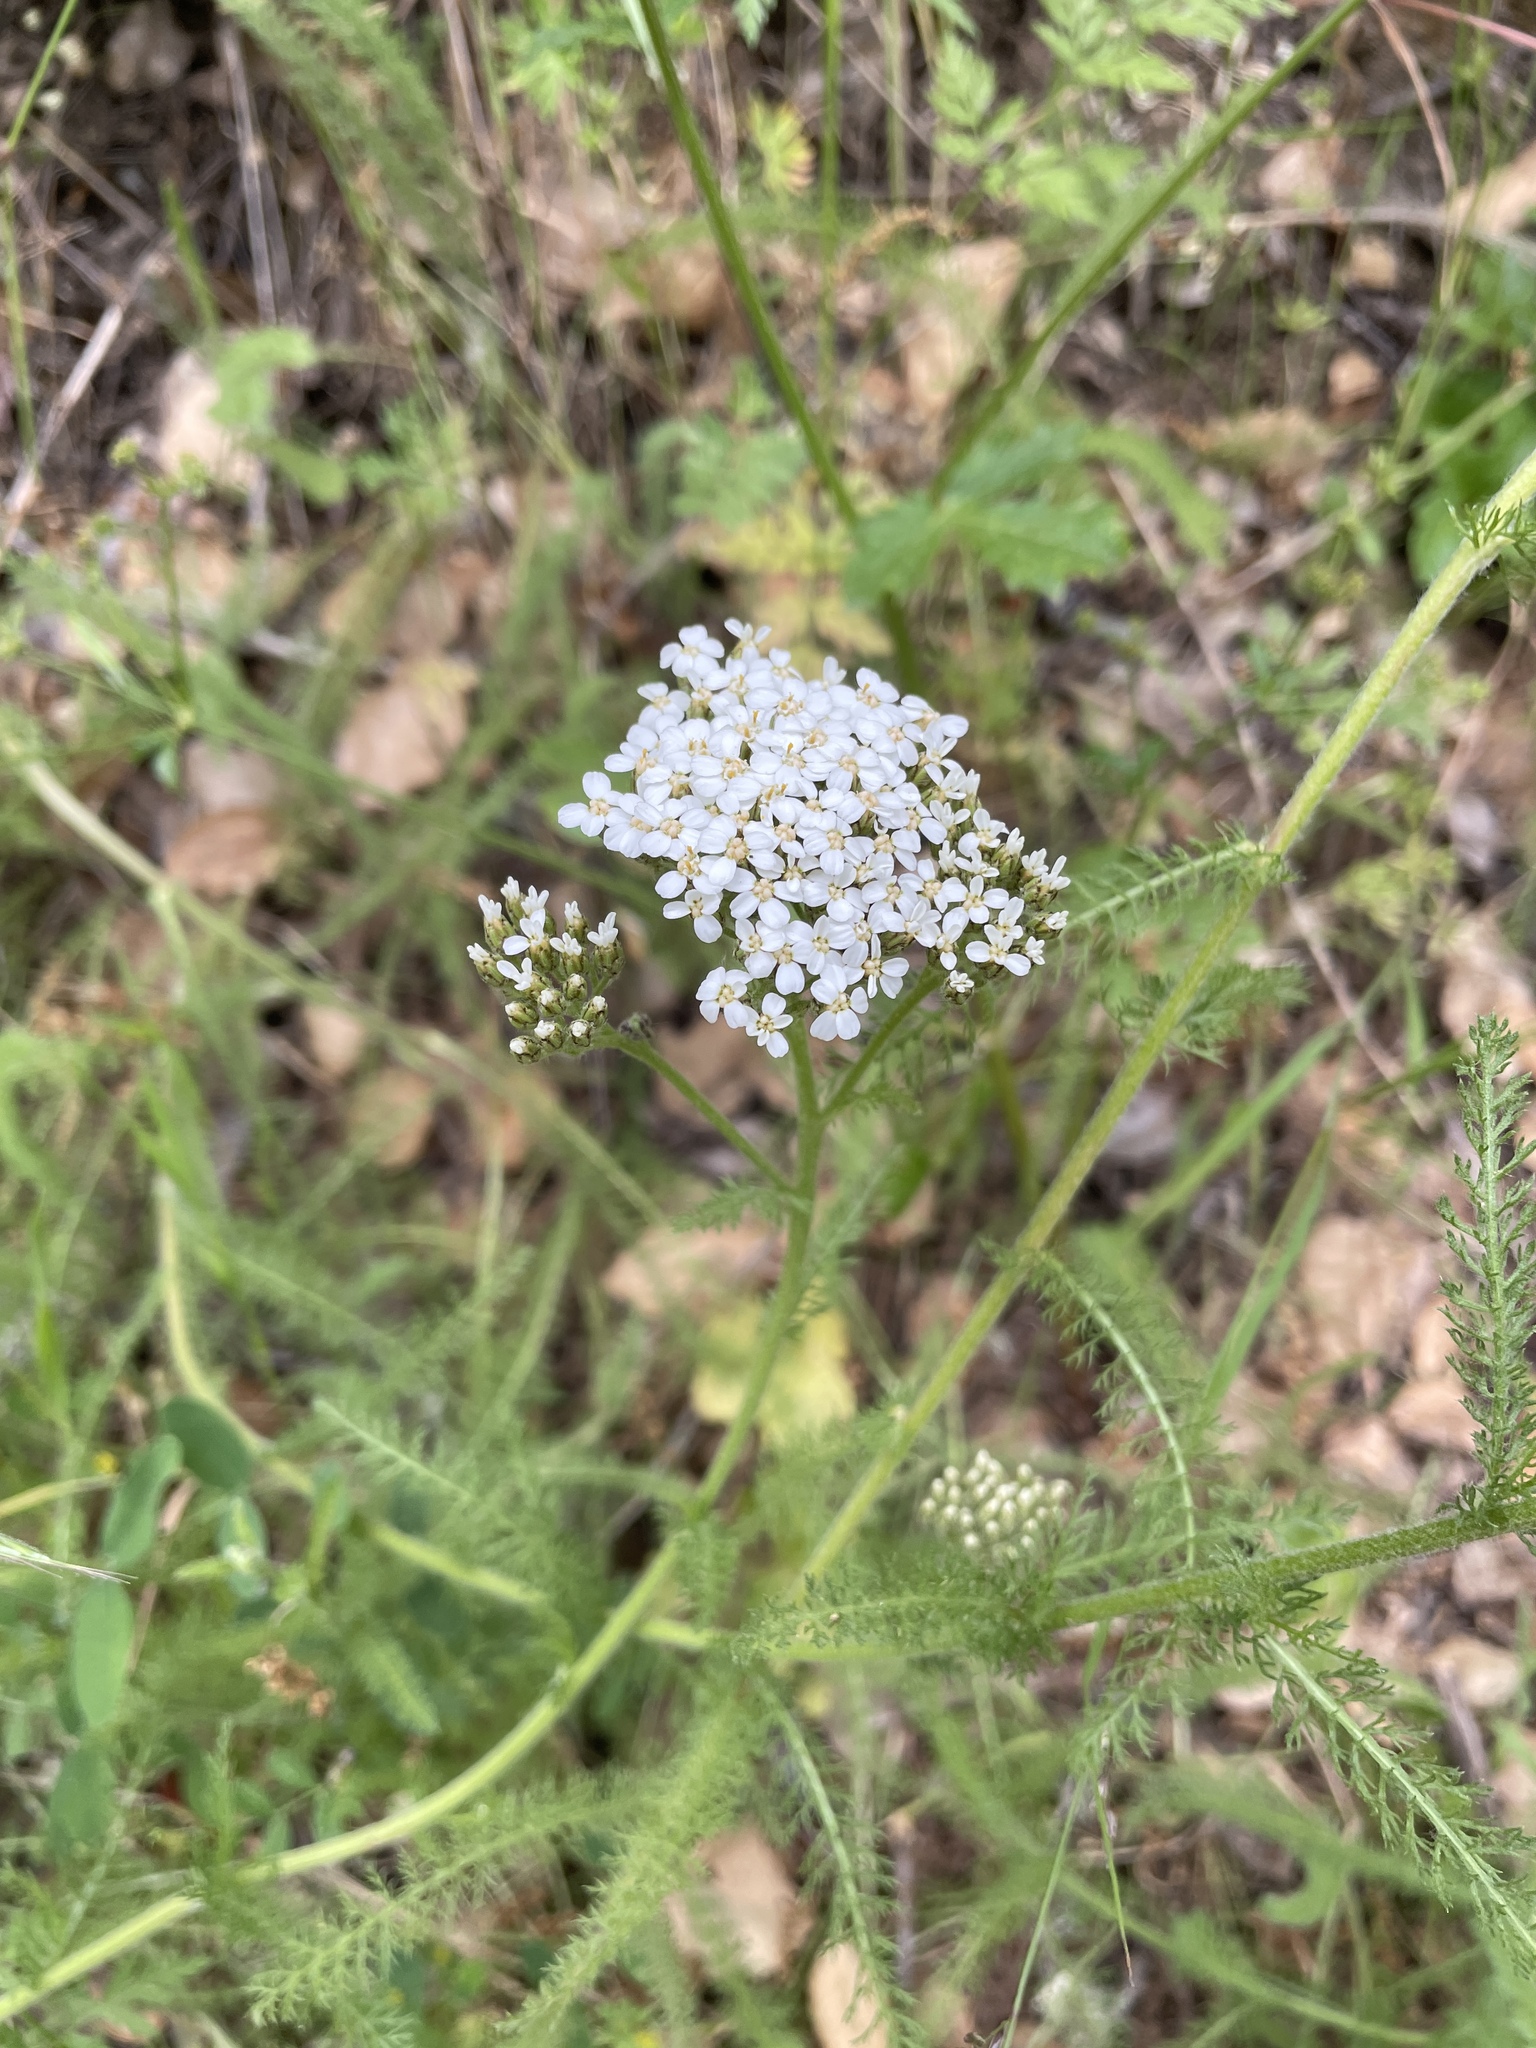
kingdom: Plantae
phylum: Tracheophyta
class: Magnoliopsida
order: Asterales
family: Asteraceae
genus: Achillea
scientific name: Achillea millefolium
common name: Yarrow
